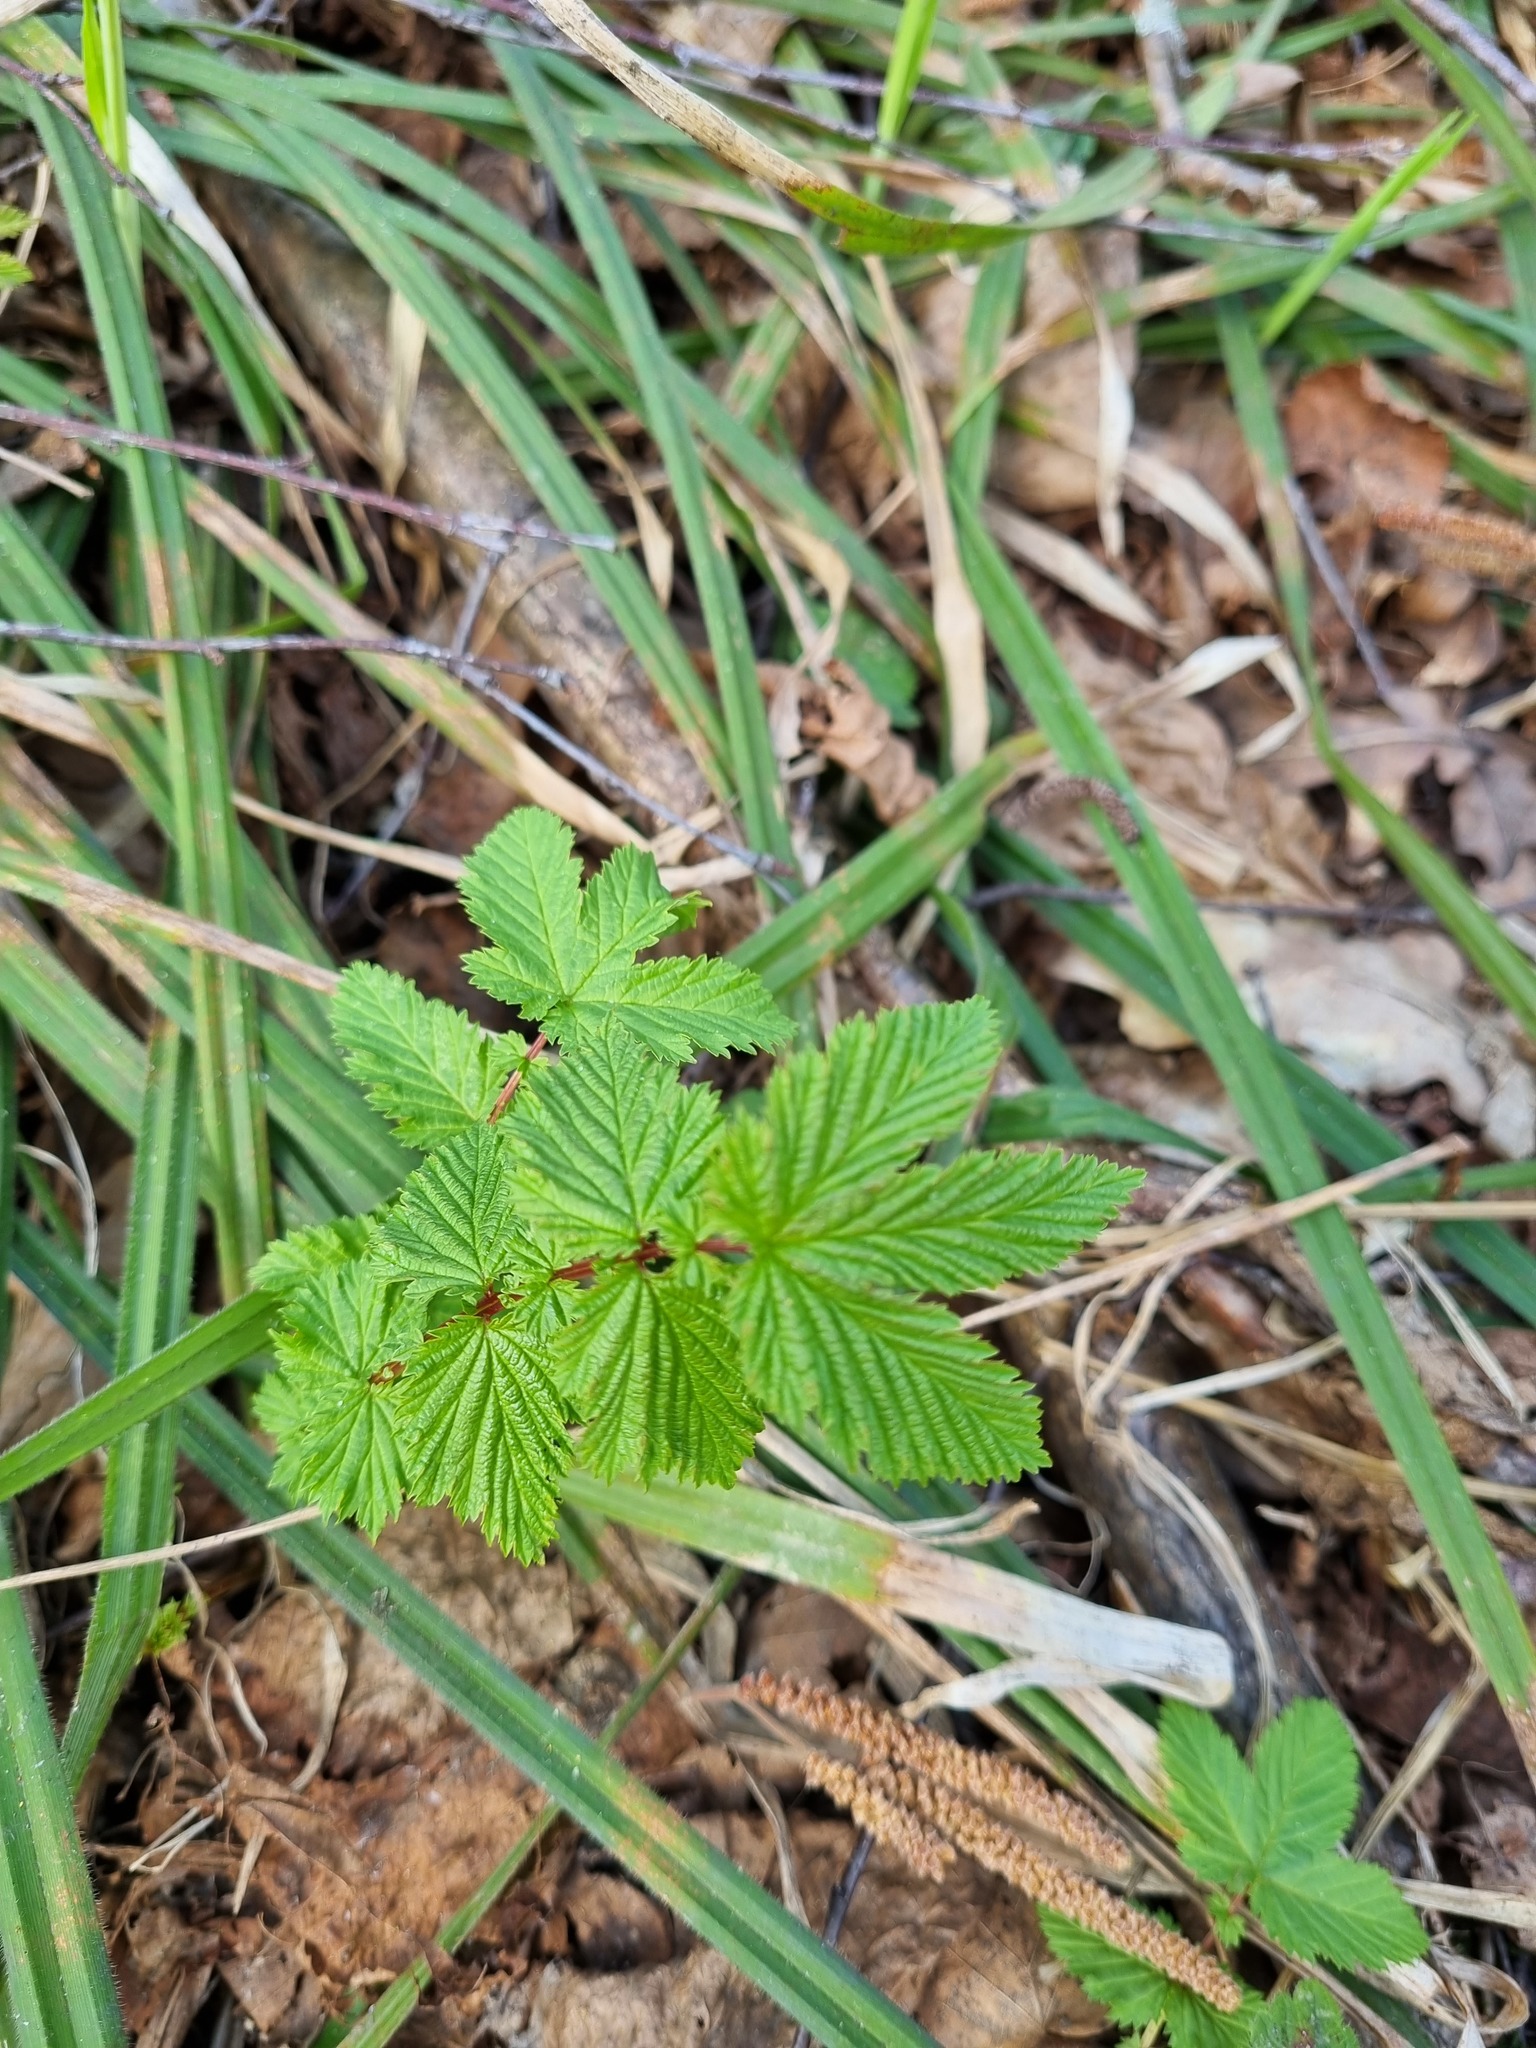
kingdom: Plantae
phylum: Tracheophyta
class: Magnoliopsida
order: Rosales
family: Rosaceae
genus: Filipendula
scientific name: Filipendula ulmaria
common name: Meadowsweet
